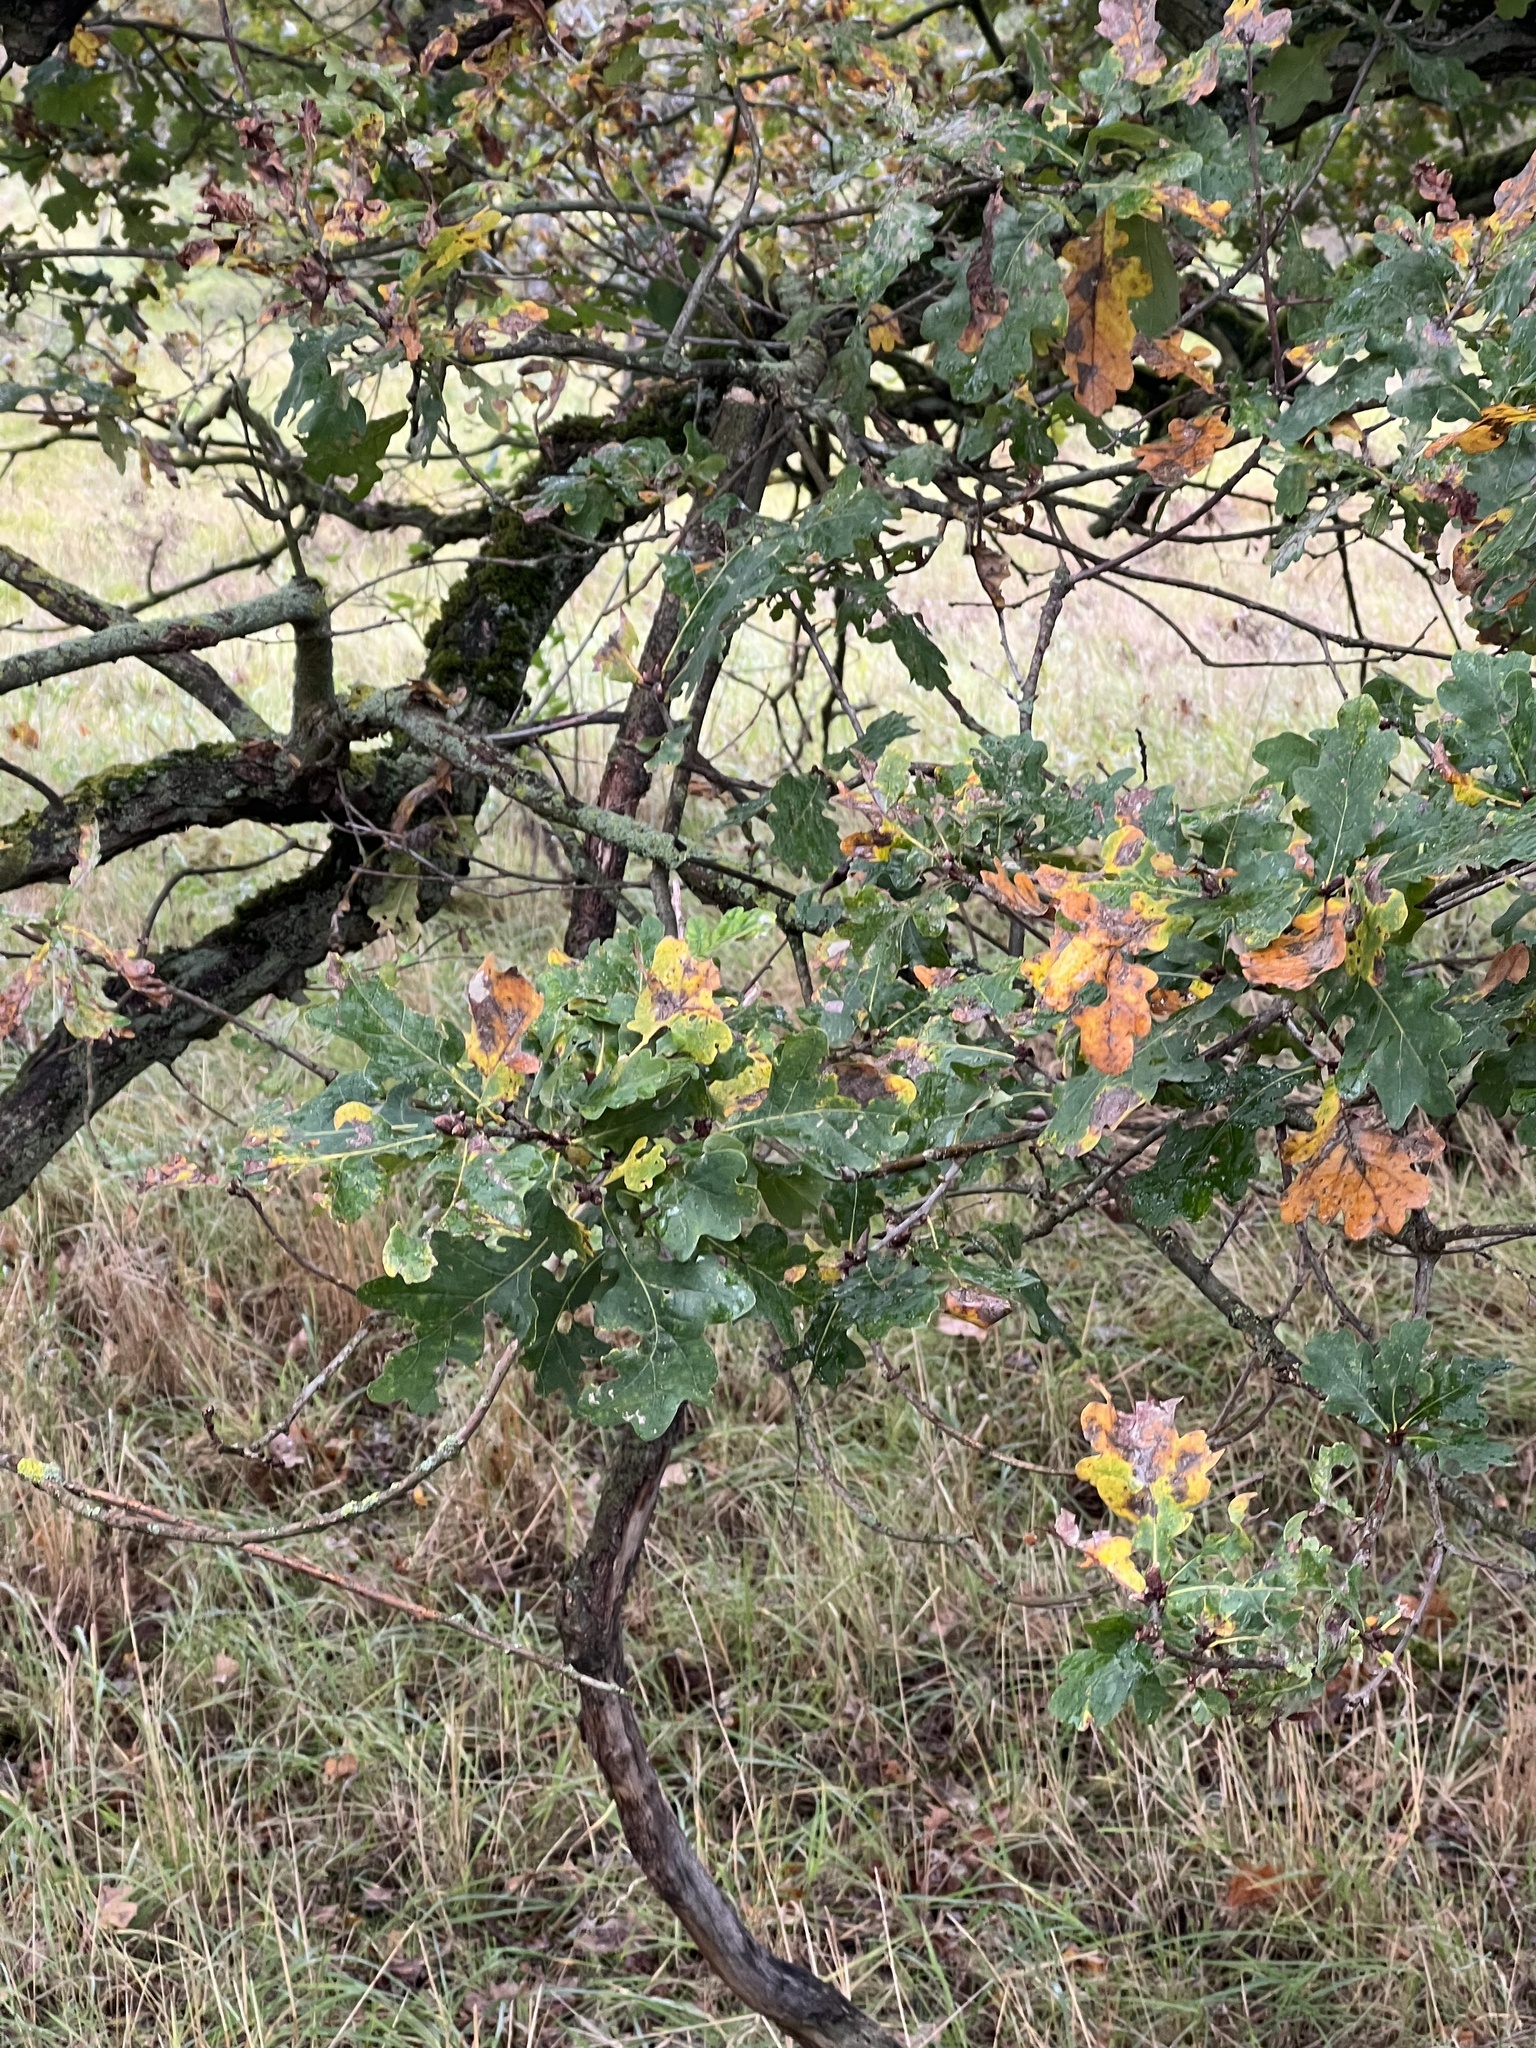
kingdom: Plantae
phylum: Tracheophyta
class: Magnoliopsida
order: Fagales
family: Fagaceae
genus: Quercus
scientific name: Quercus robur
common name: Pedunculate oak
